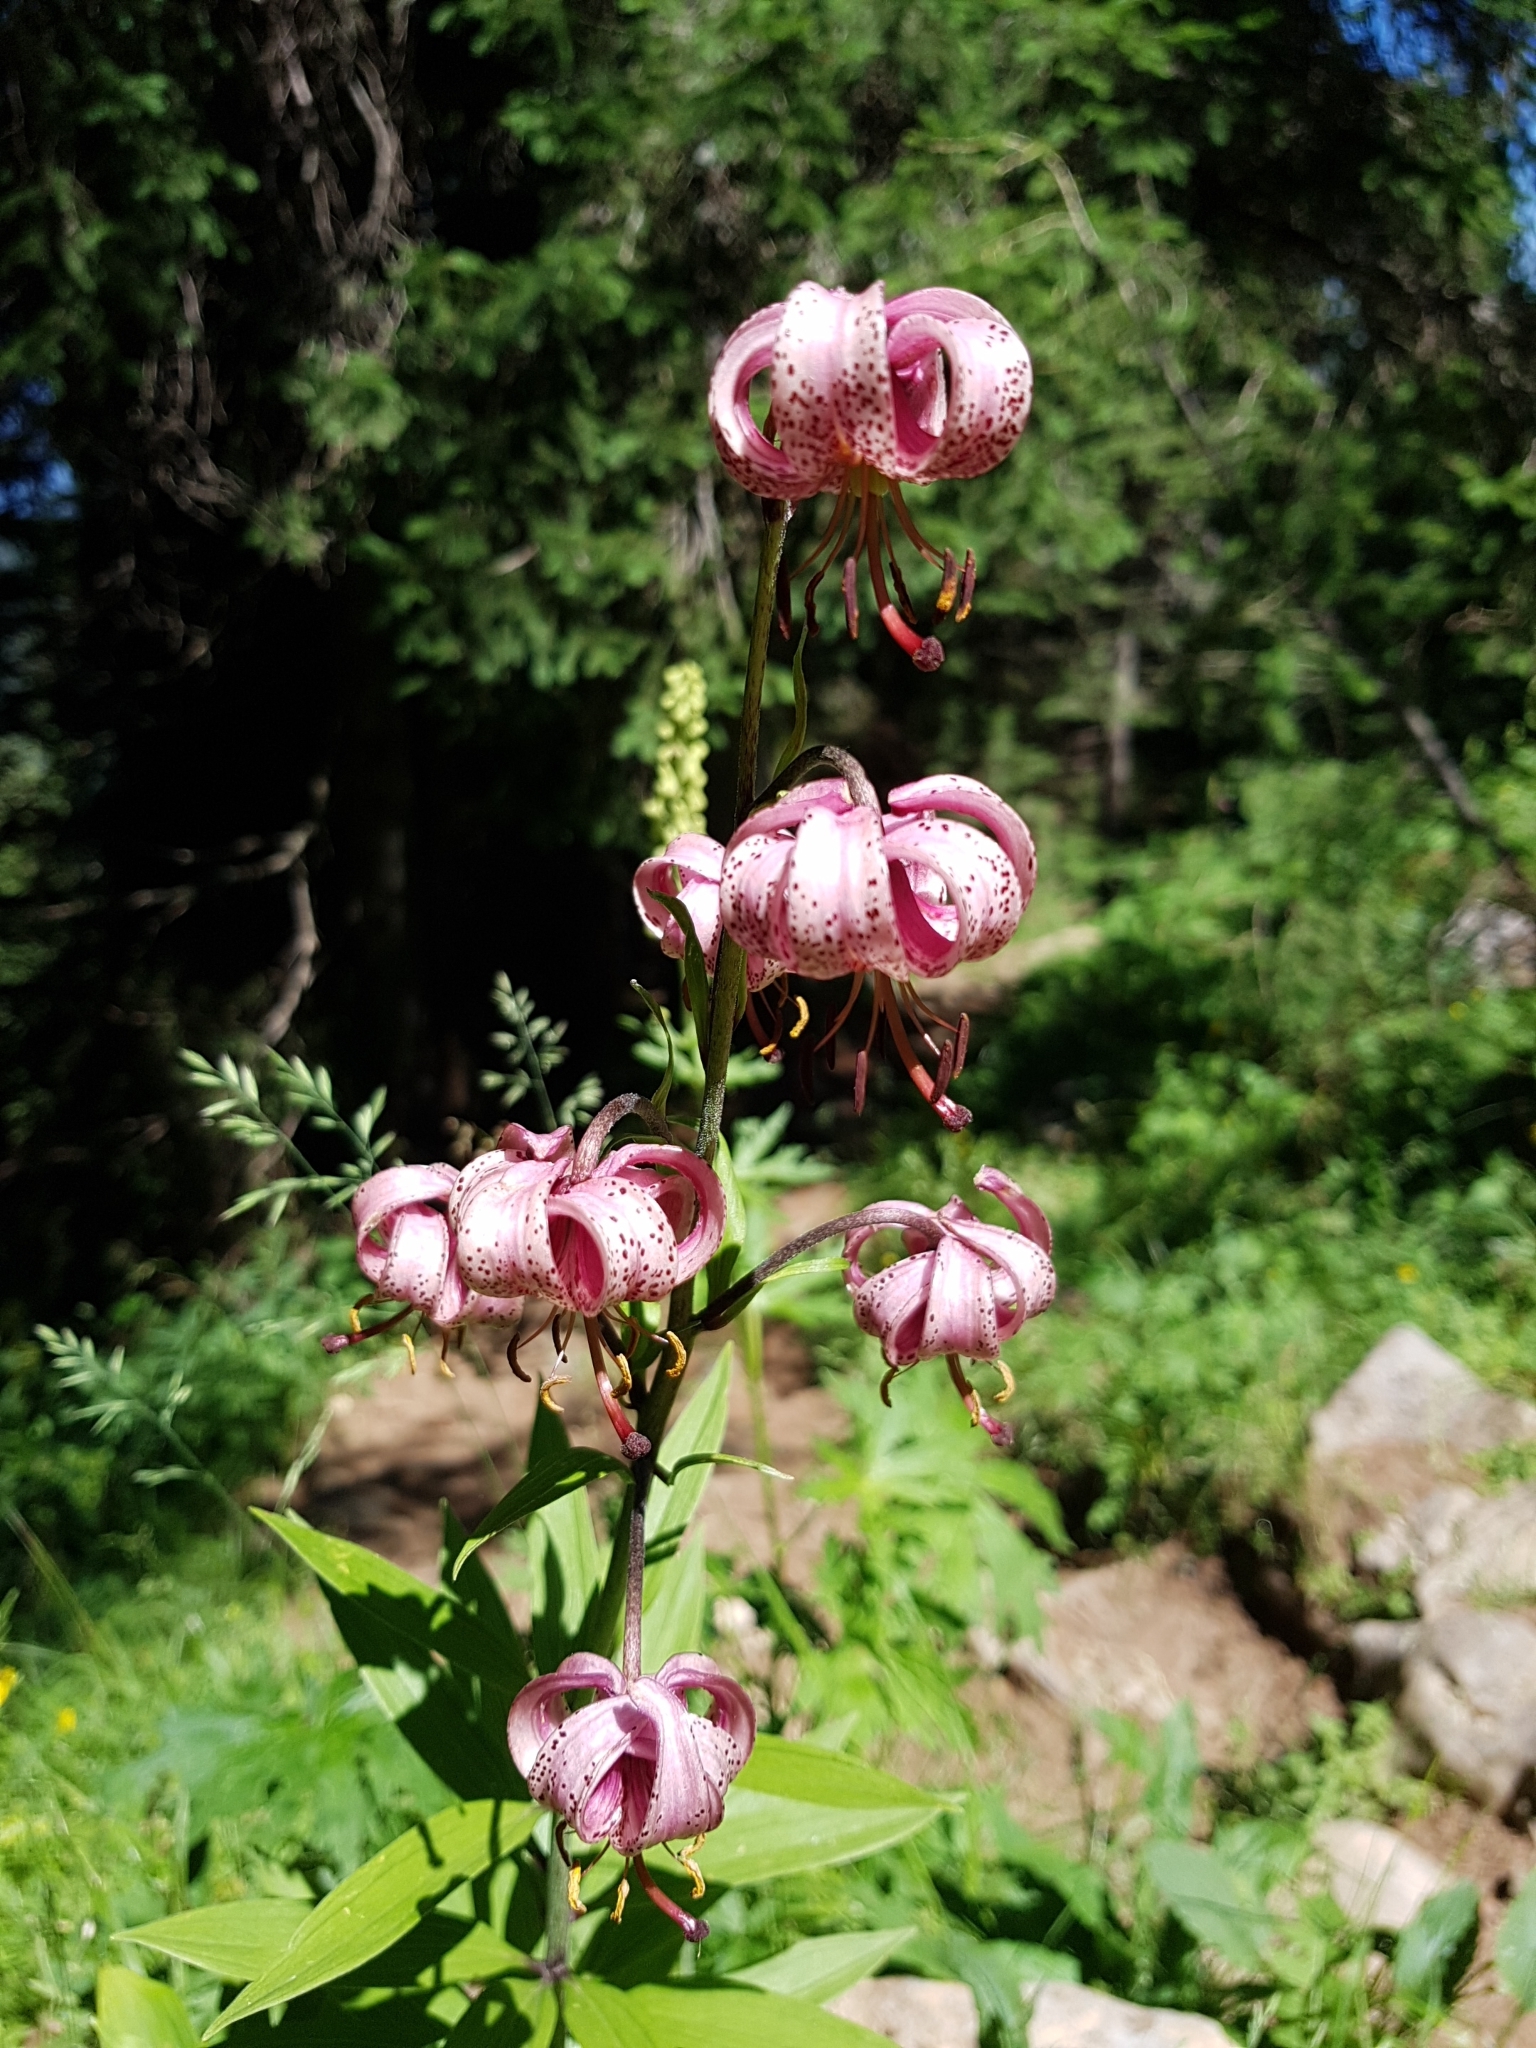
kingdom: Plantae
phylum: Tracheophyta
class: Liliopsida
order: Liliales
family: Liliaceae
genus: Lilium
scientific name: Lilium martagon
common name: Martagon lily
